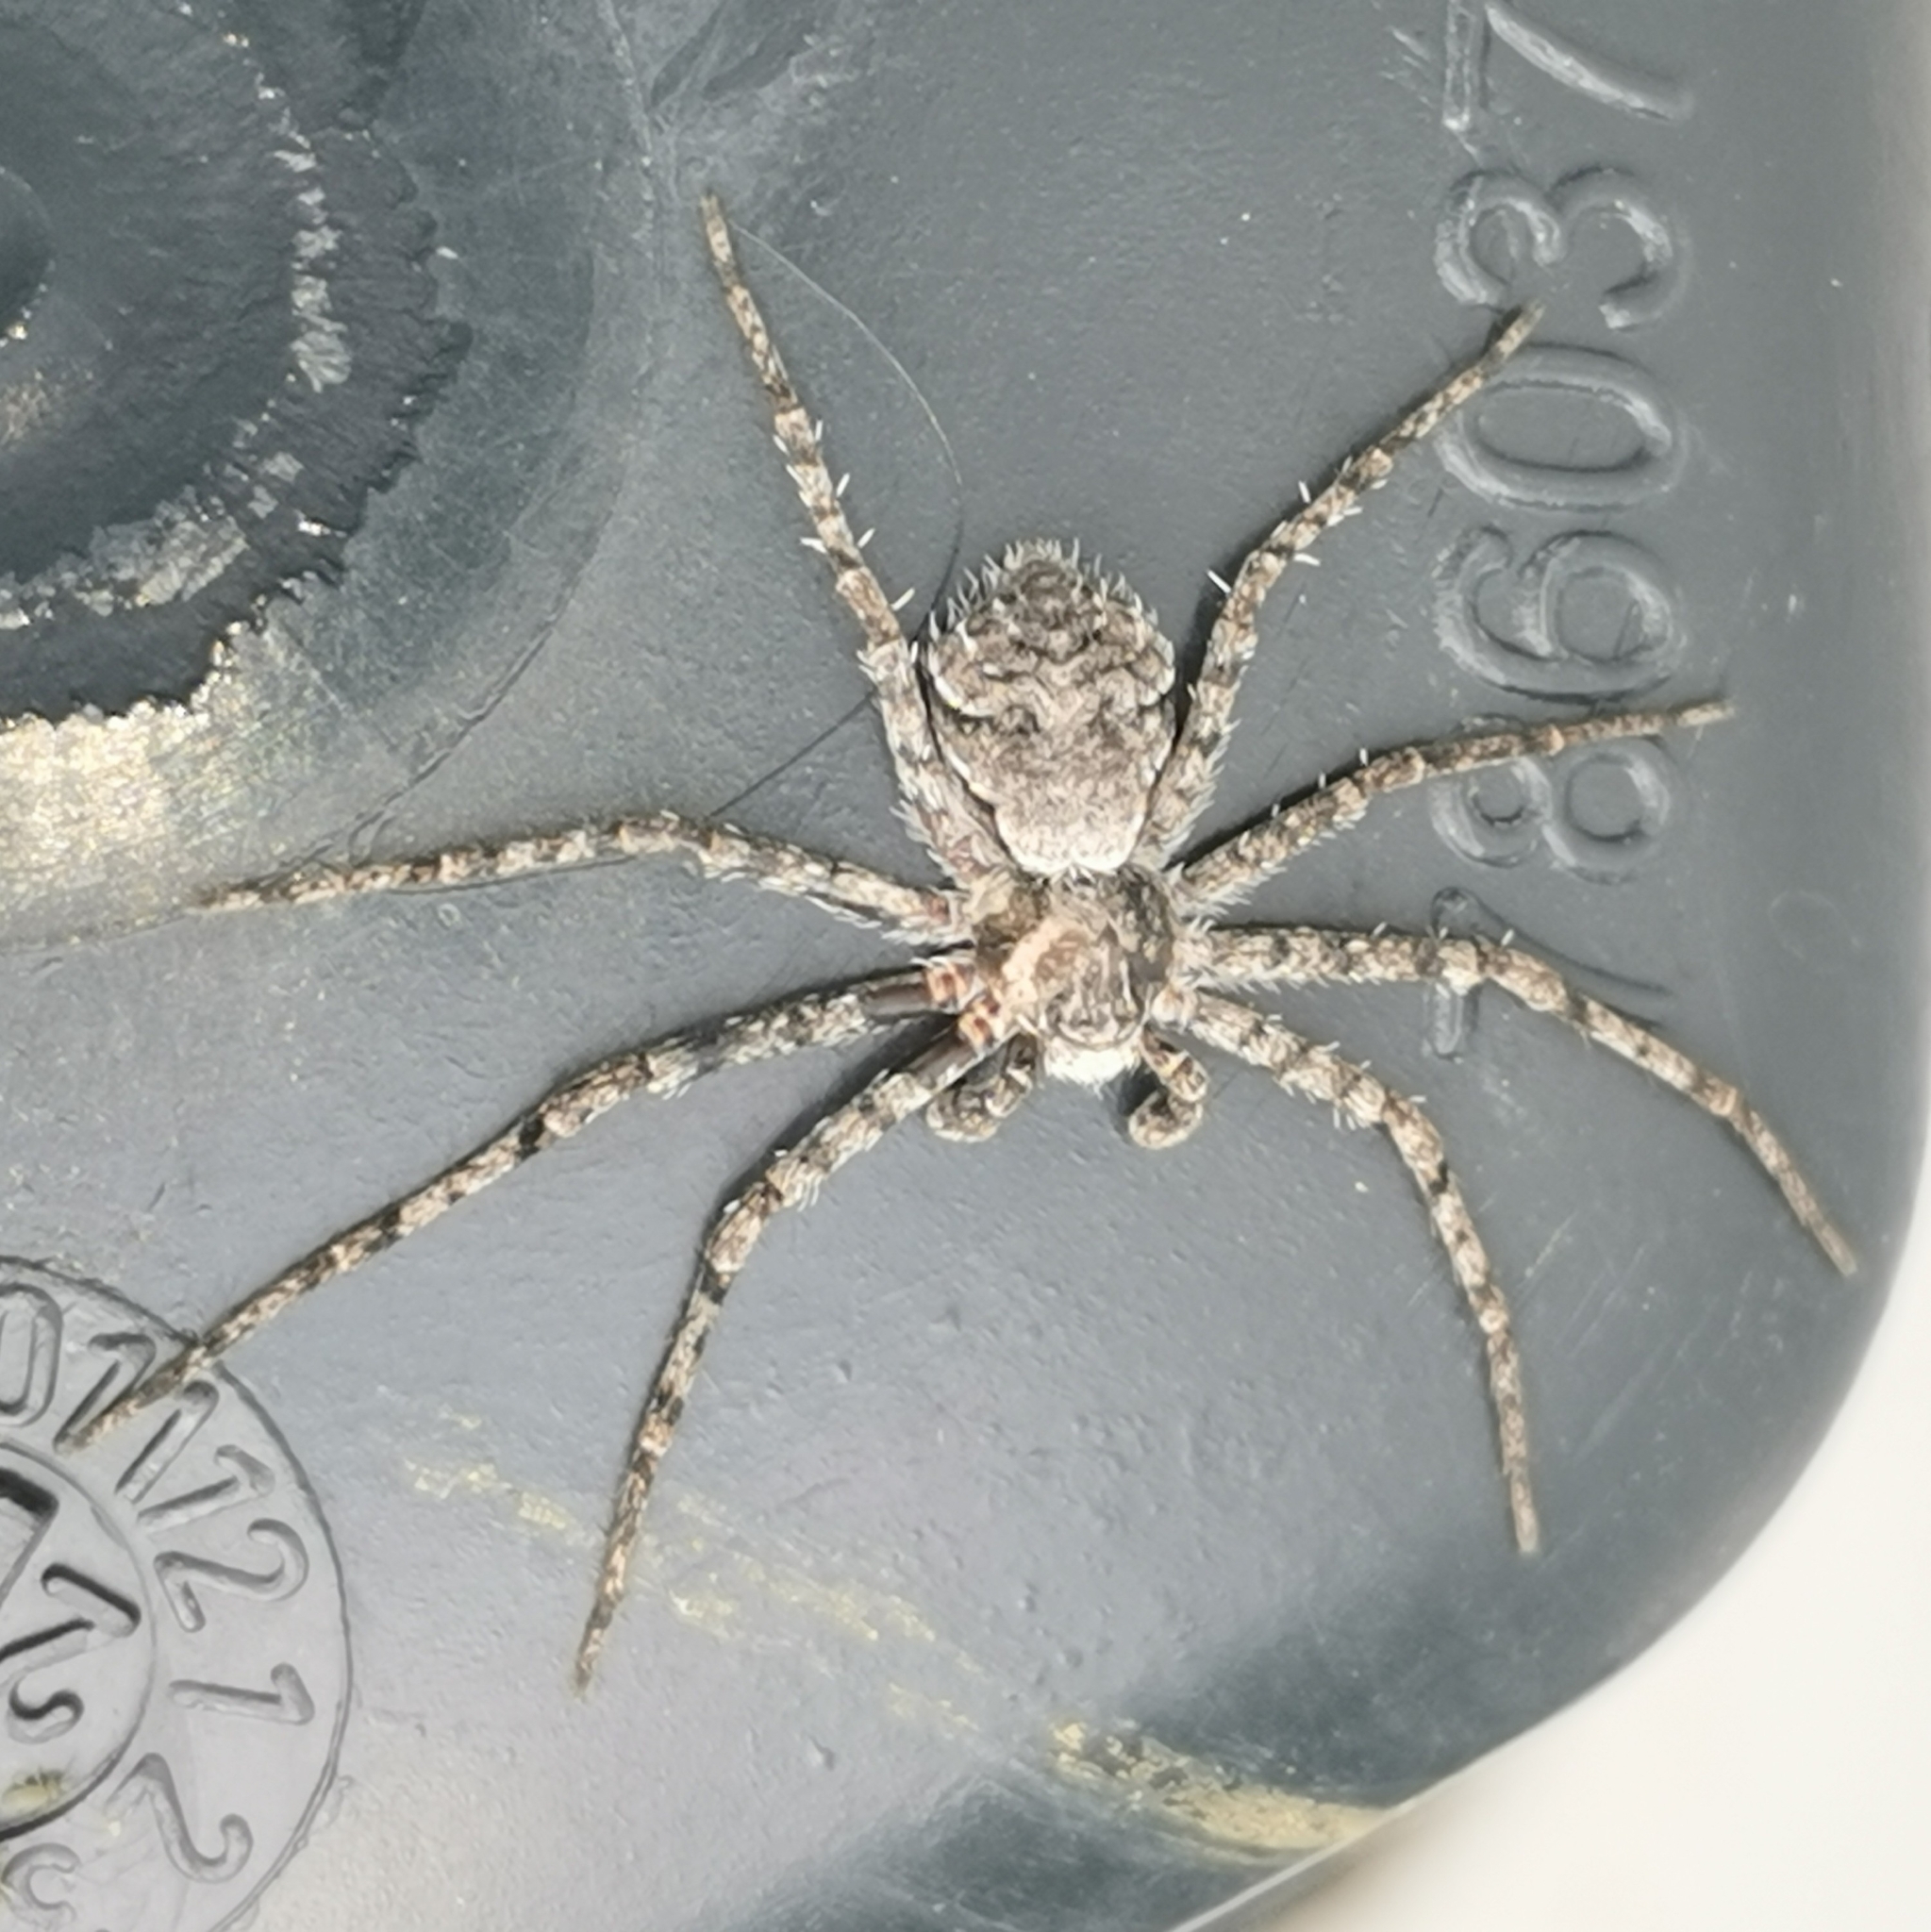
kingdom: Animalia
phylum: Arthropoda
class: Arachnida
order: Araneae
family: Philodromidae
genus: Philodromus
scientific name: Philodromus margaritatus
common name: Lichen running-spider
